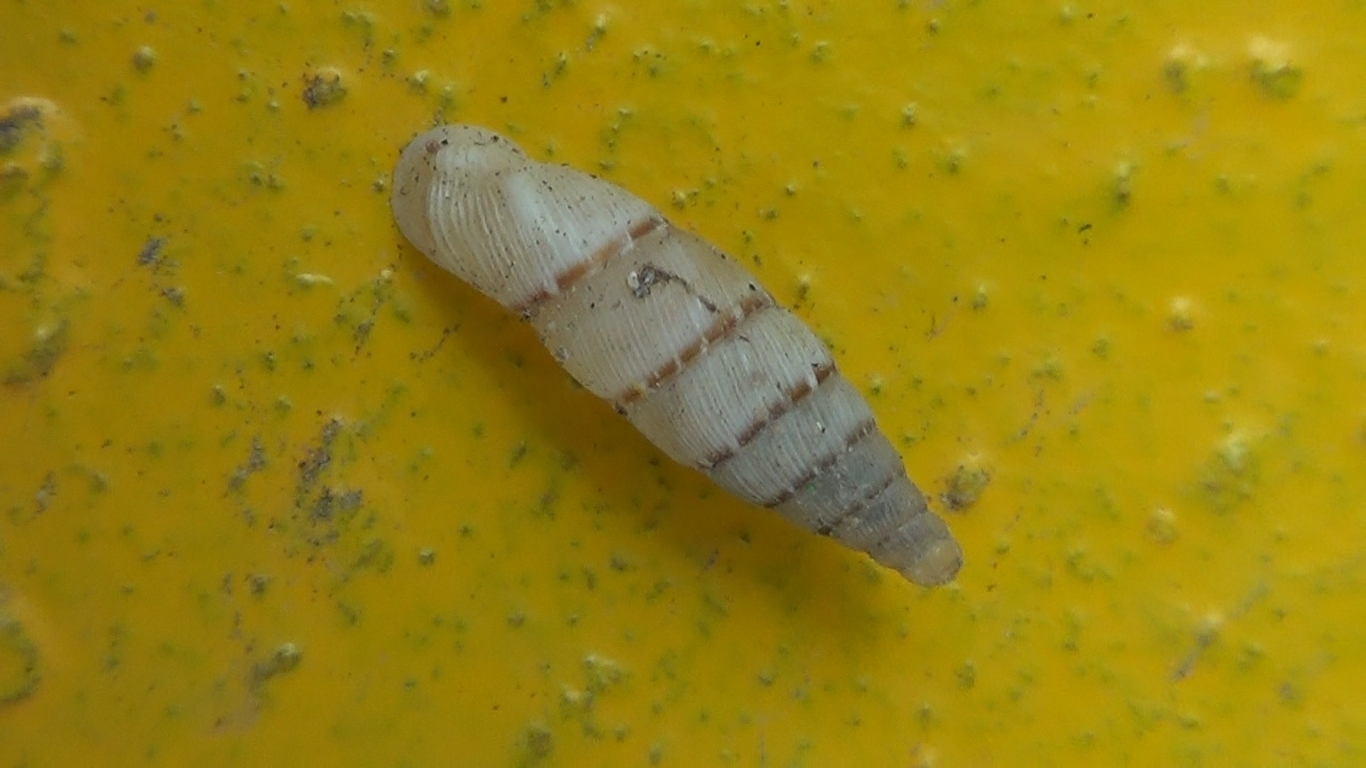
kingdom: Animalia
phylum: Mollusca
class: Gastropoda
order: Stylommatophora
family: Clausiliidae
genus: Papillifera
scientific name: Papillifera papillaris
